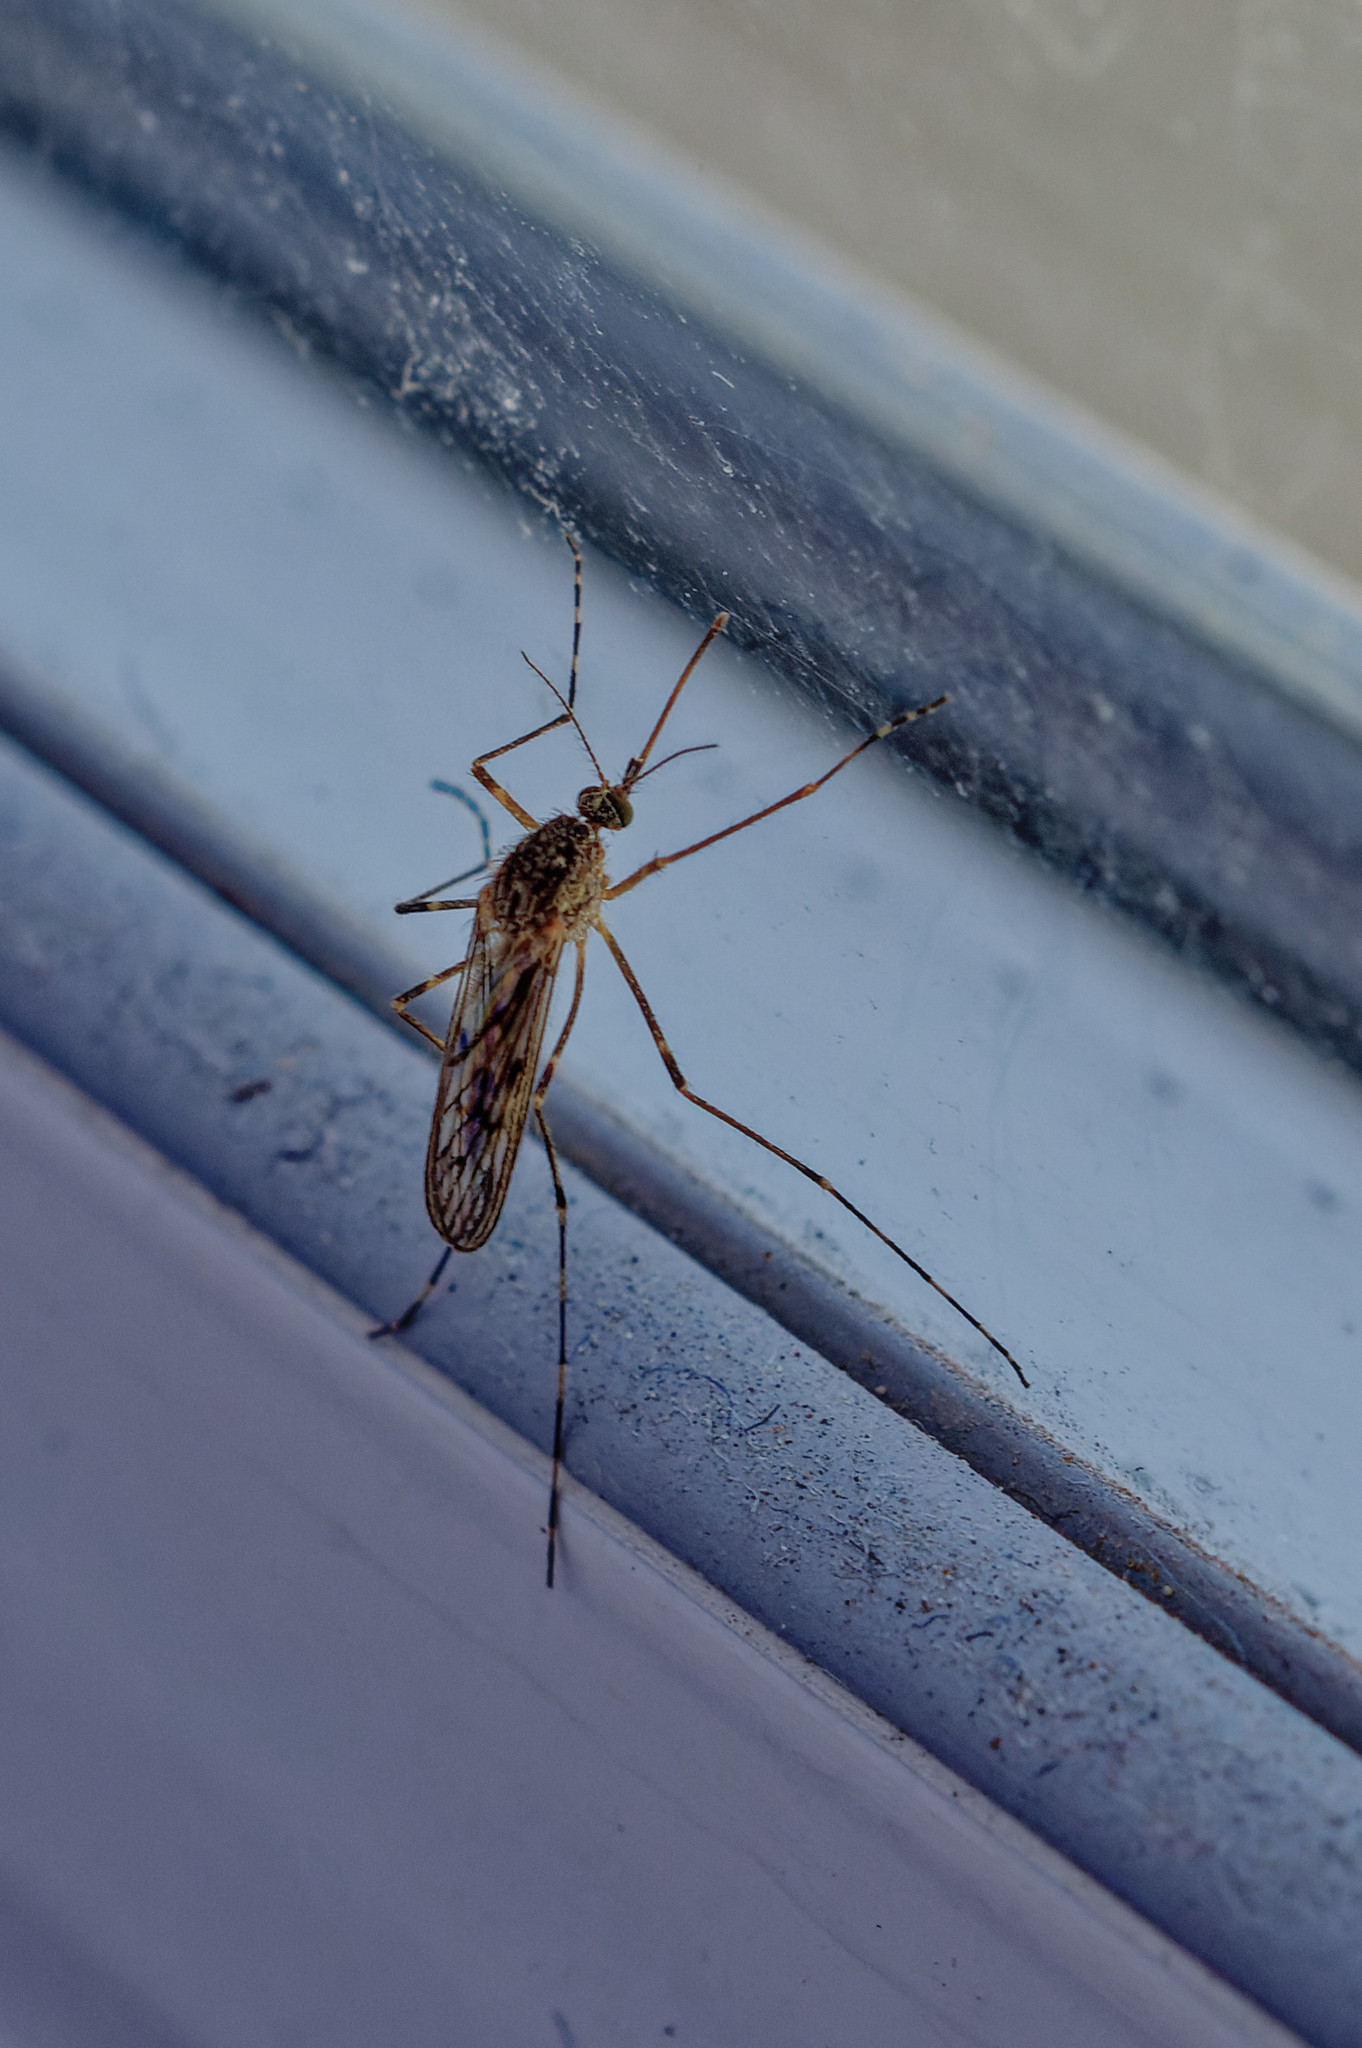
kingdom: Animalia
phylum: Arthropoda
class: Insecta
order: Diptera
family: Culicidae
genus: Culiseta
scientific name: Culiseta annulata
